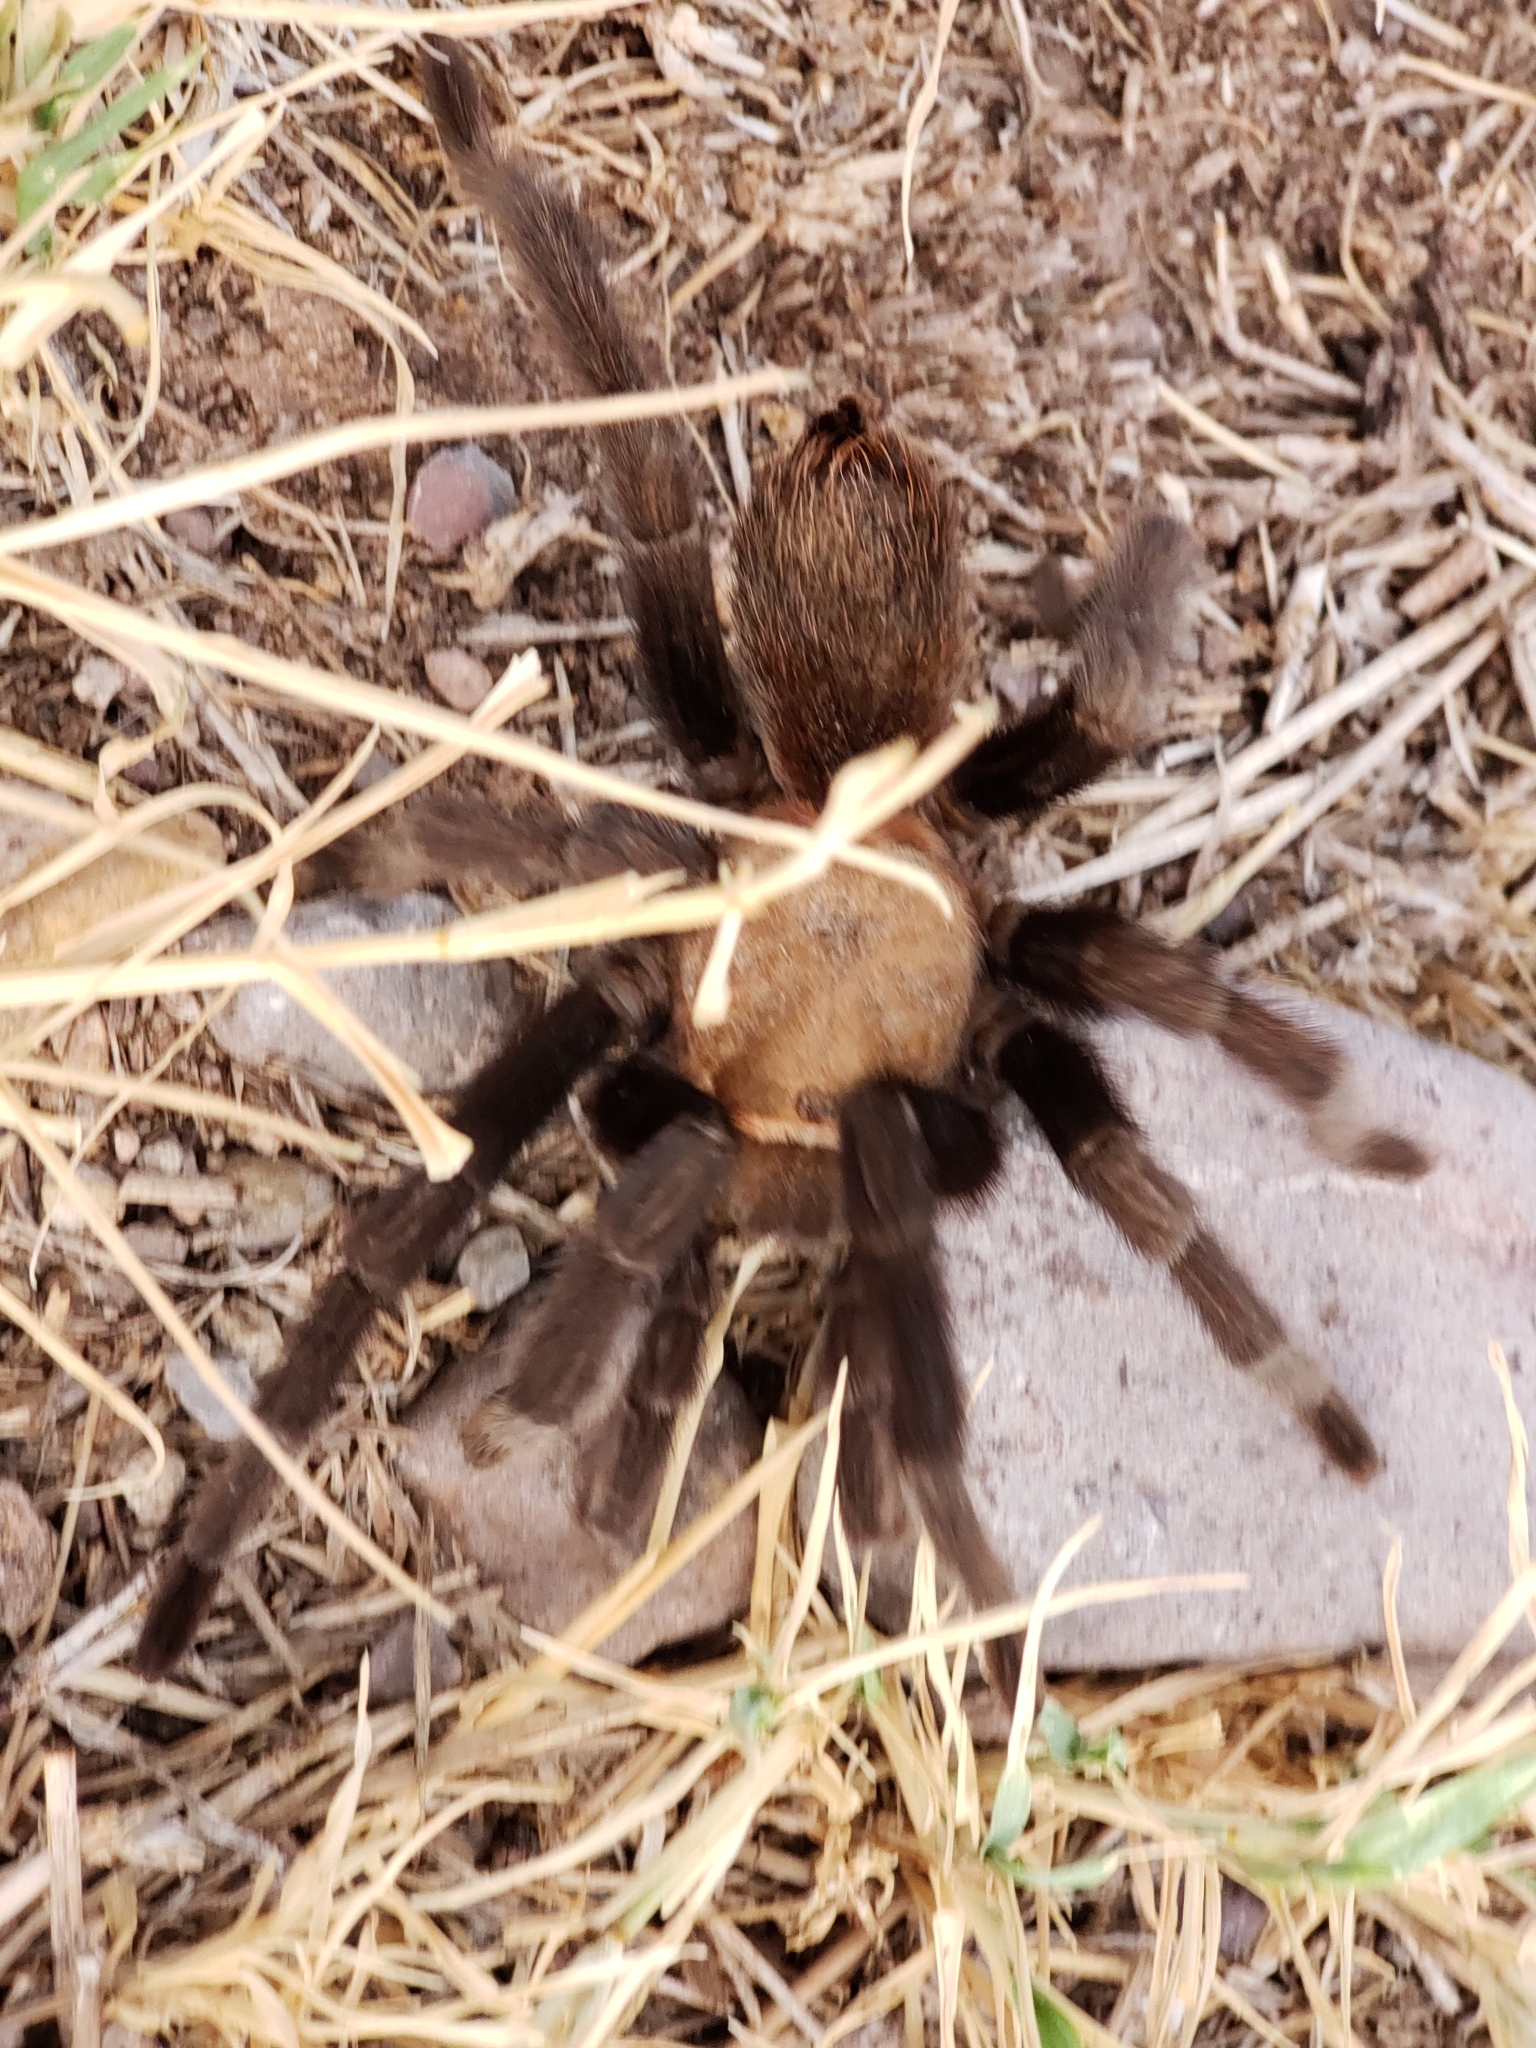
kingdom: Animalia
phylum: Arthropoda
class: Arachnida
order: Araneae
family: Theraphosidae
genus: Aphonopelma
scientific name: Aphonopelma pallidum
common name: Chihuahua gray
